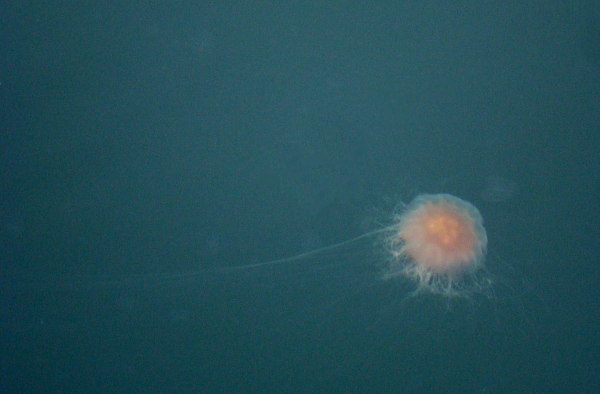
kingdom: Animalia
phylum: Cnidaria
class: Scyphozoa
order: Semaeostomeae
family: Cyaneidae
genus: Cyanea
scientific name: Cyanea capillata
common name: Lion's mane jellyfish
